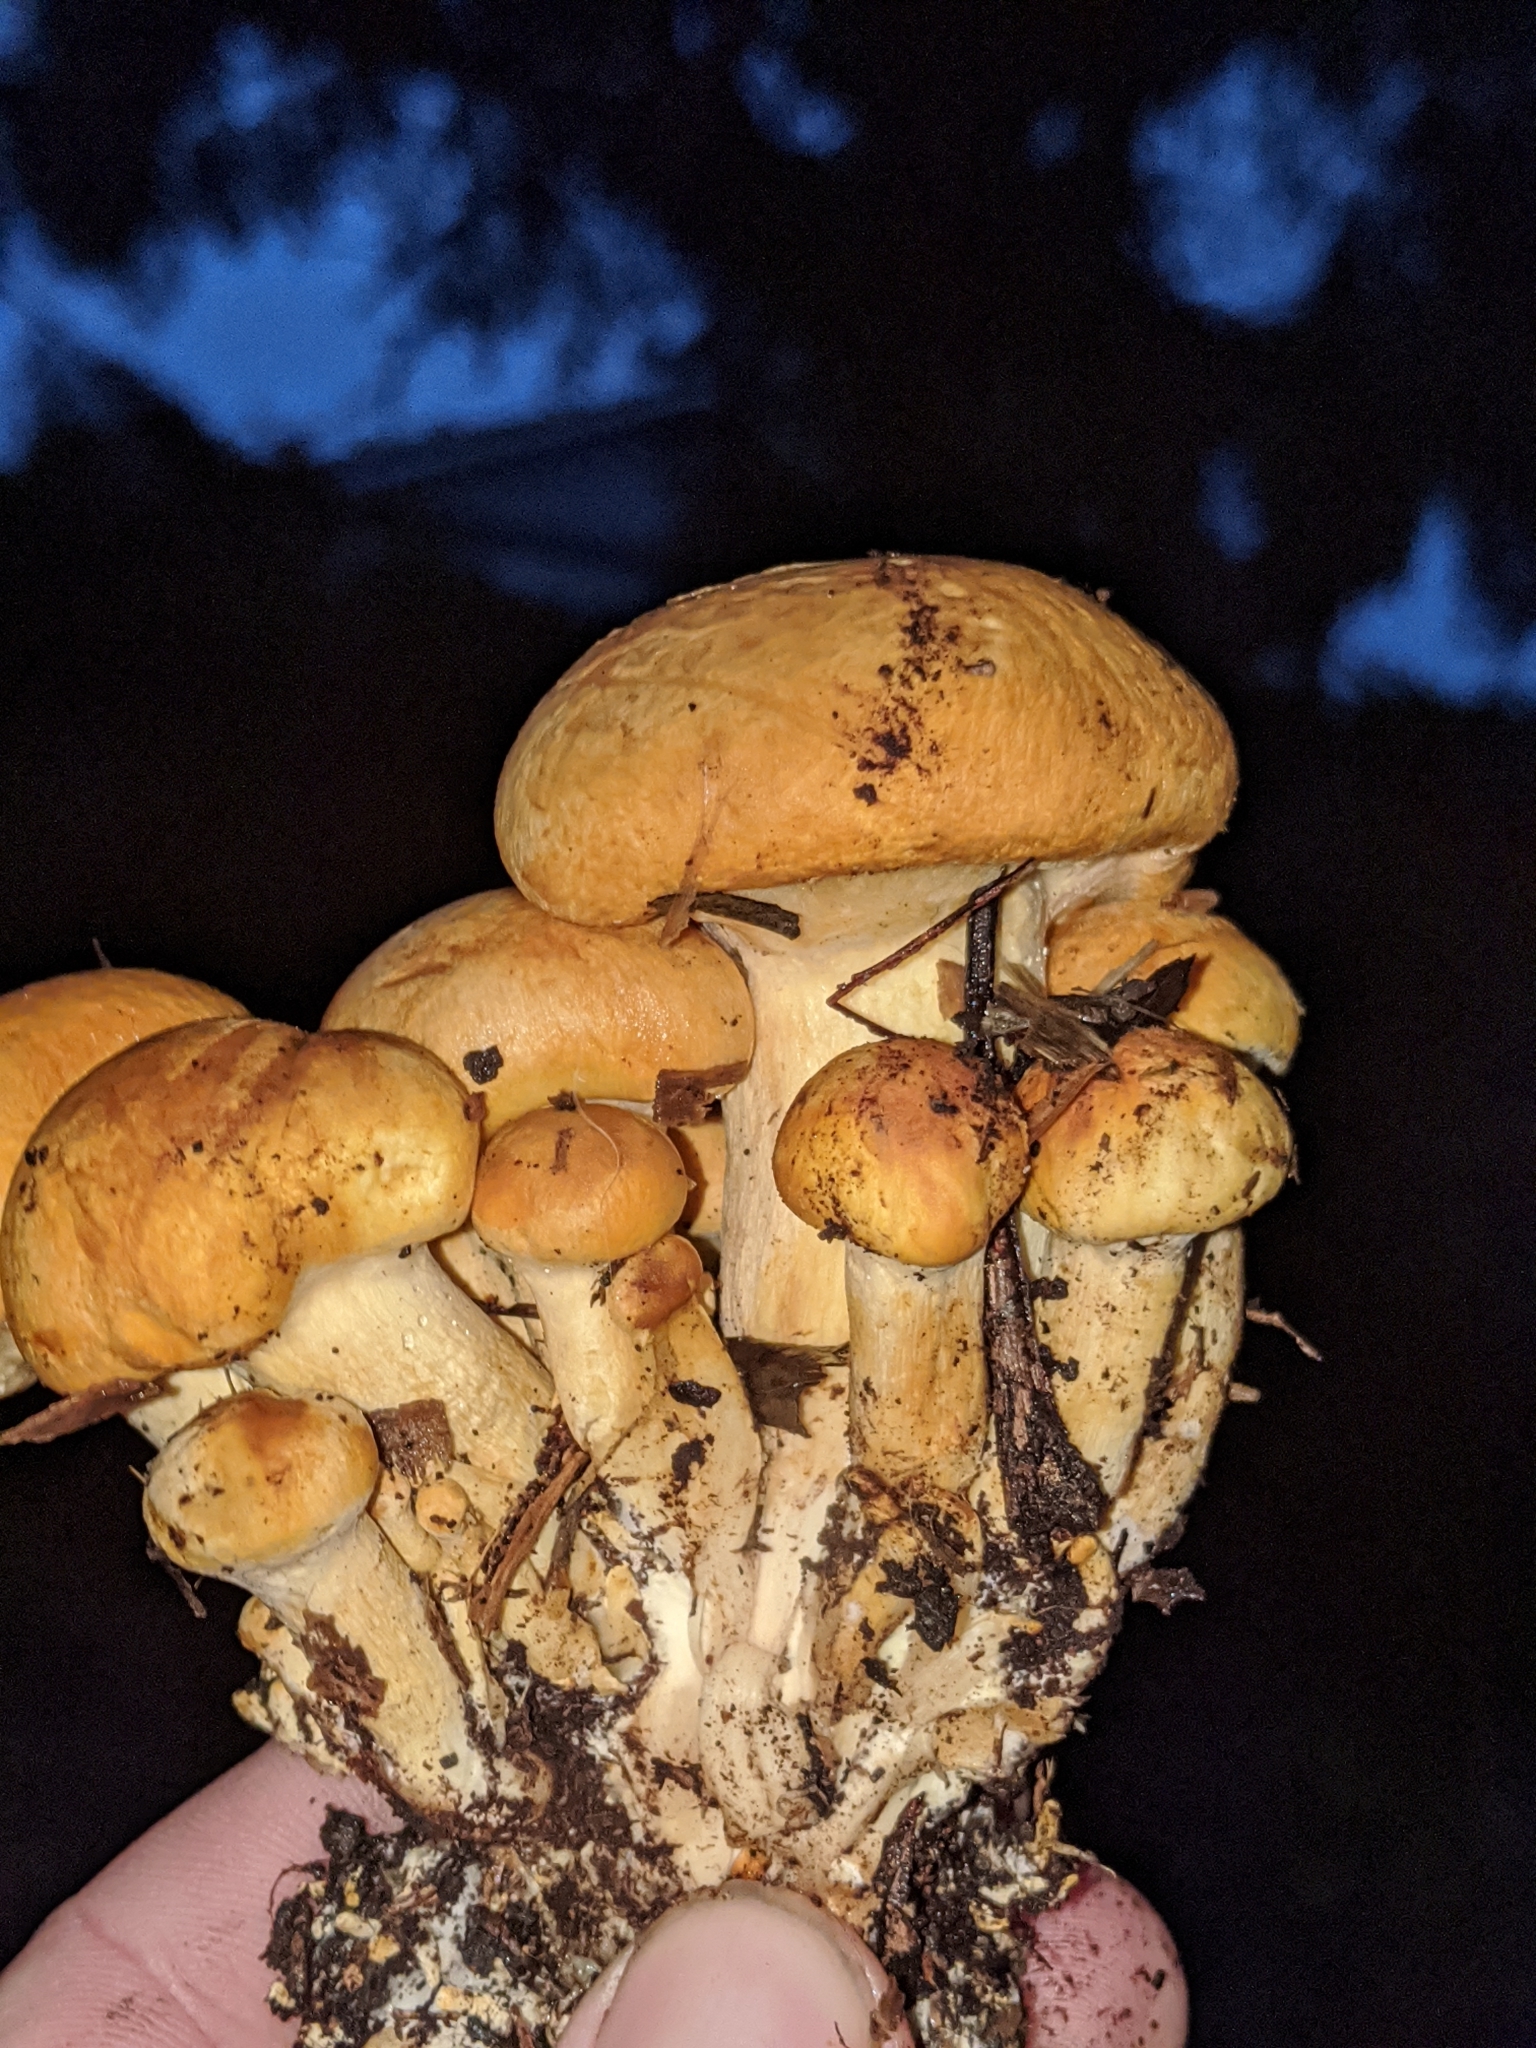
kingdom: Fungi
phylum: Basidiomycota
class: Agaricomycetes
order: Agaricales
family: Hymenogastraceae
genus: Gymnopilus
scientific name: Gymnopilus ventricosus
